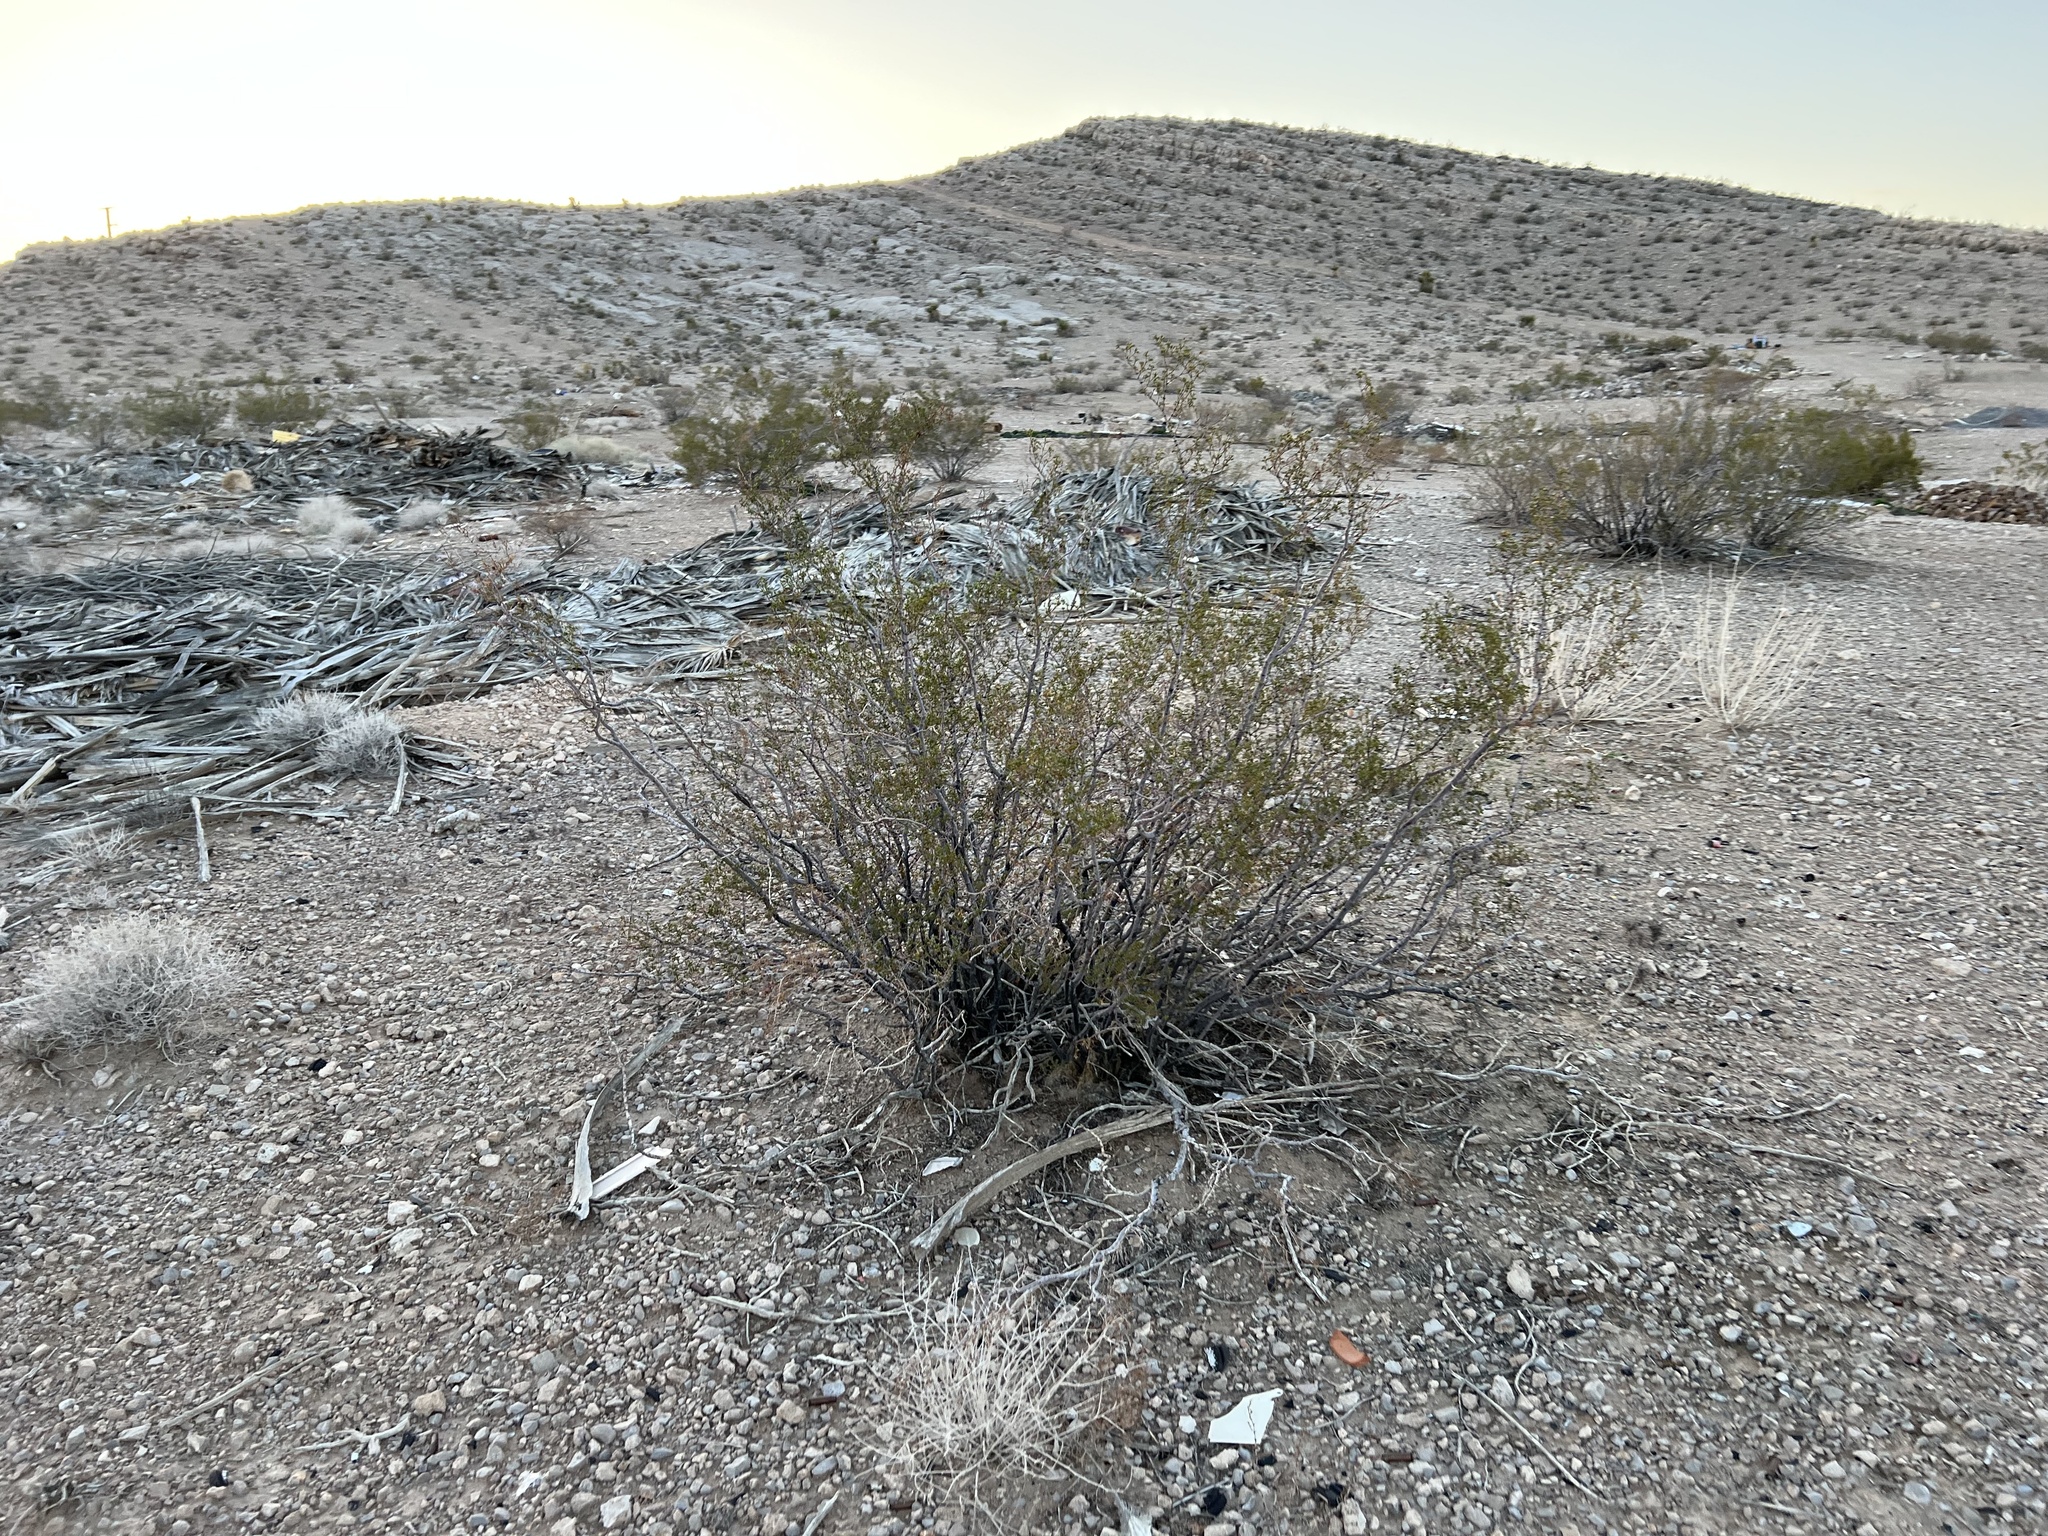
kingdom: Plantae
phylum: Tracheophyta
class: Magnoliopsida
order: Zygophyllales
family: Zygophyllaceae
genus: Larrea
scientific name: Larrea tridentata
